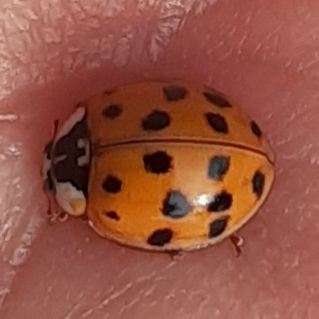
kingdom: Animalia
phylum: Arthropoda
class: Insecta
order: Coleoptera
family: Coccinellidae
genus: Harmonia
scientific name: Harmonia axyridis
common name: Harlequin ladybird
